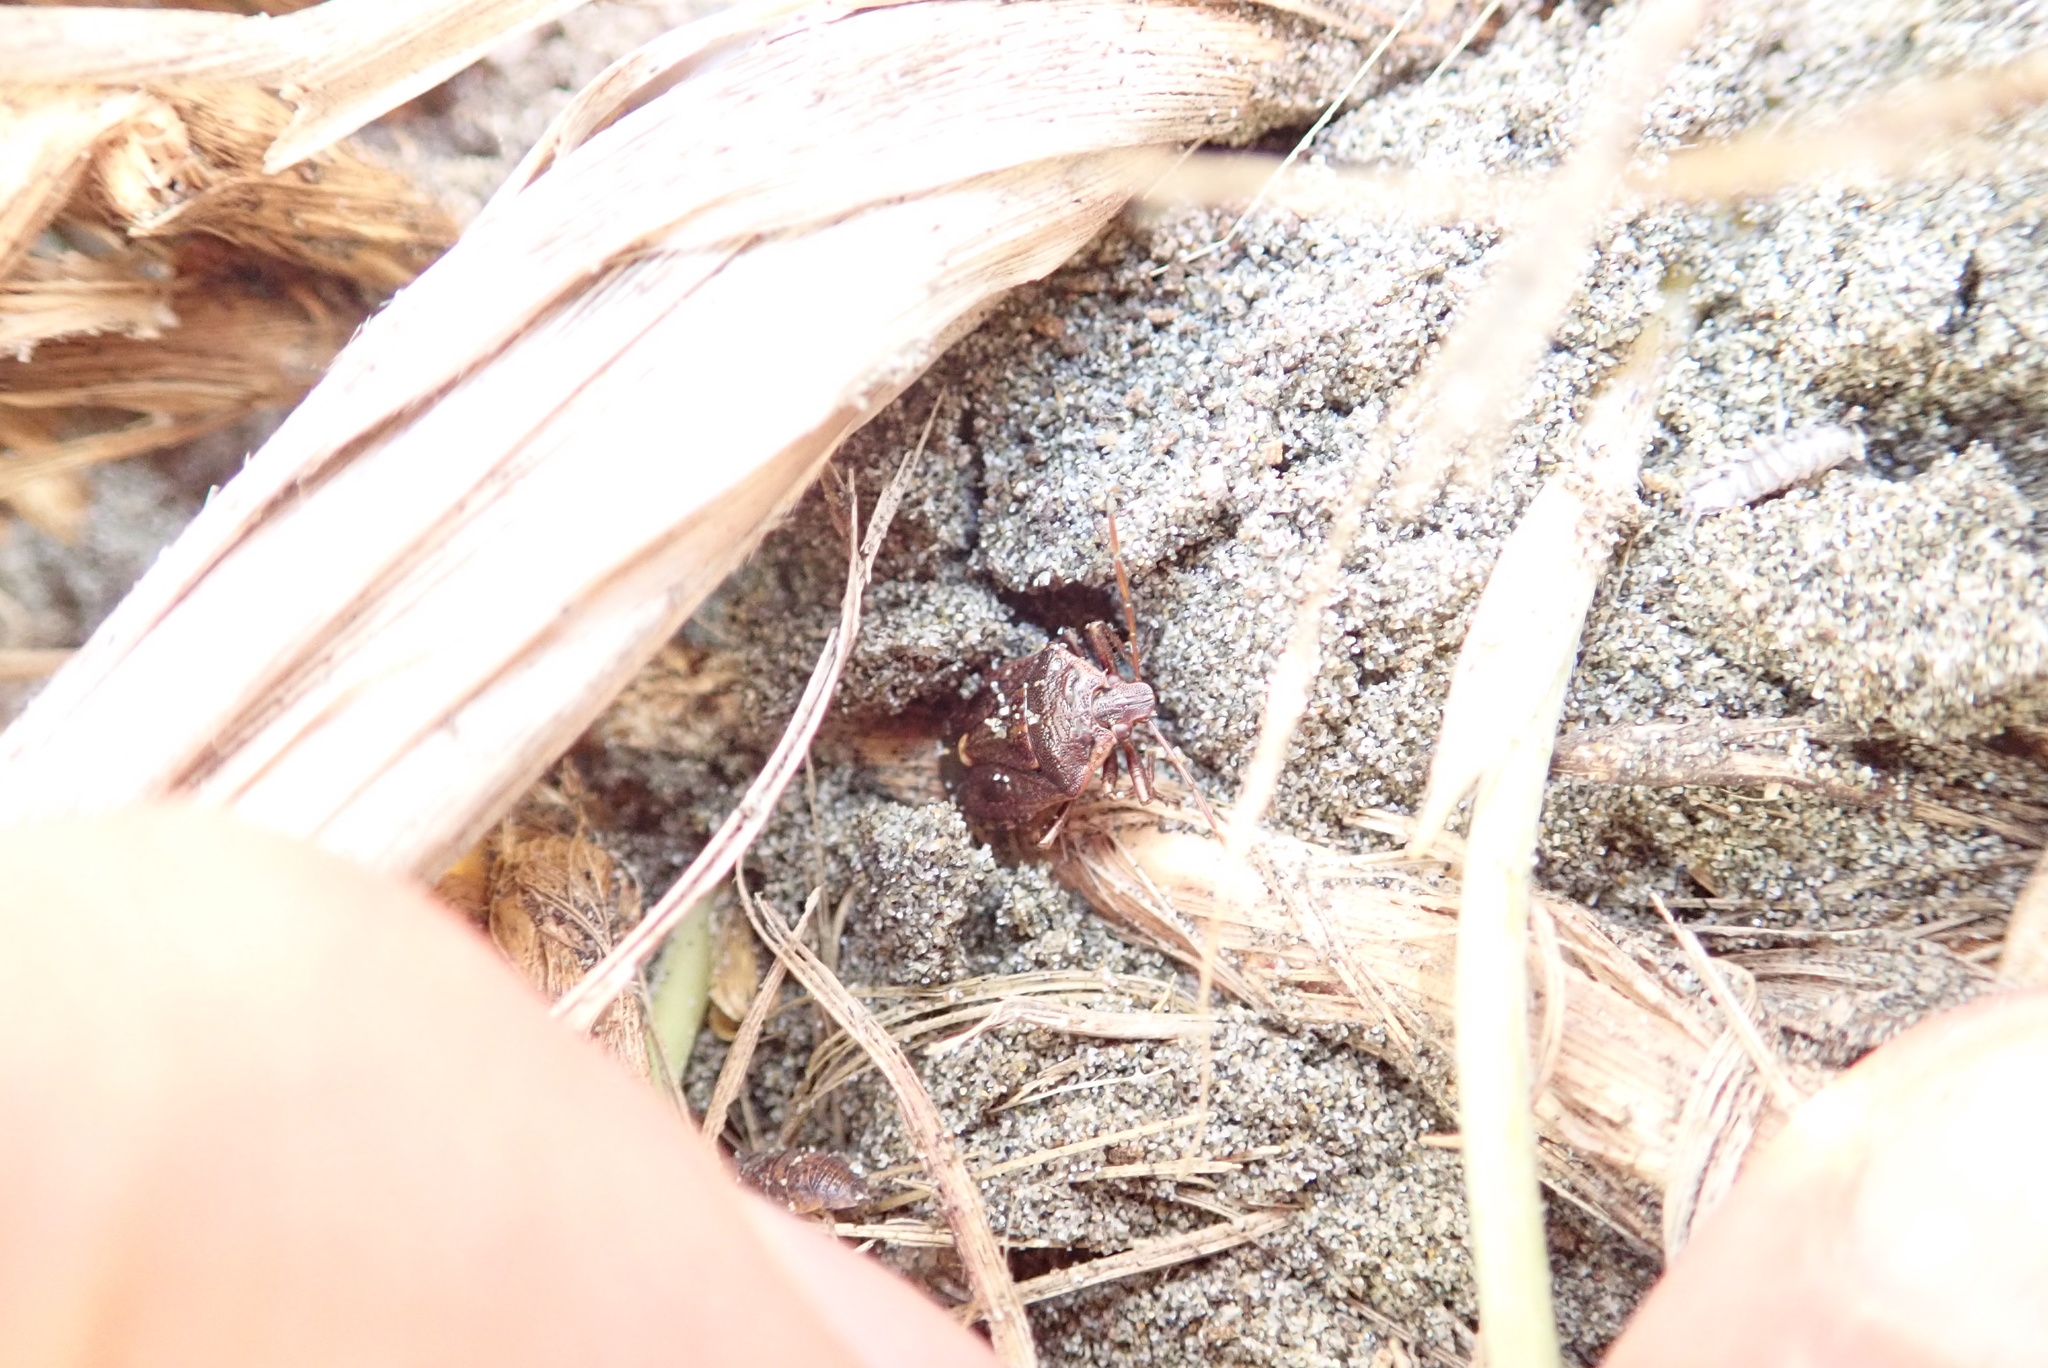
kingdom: Animalia
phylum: Arthropoda
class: Insecta
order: Hemiptera
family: Pentatomidae
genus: Cermatulus
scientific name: Cermatulus nasalis
